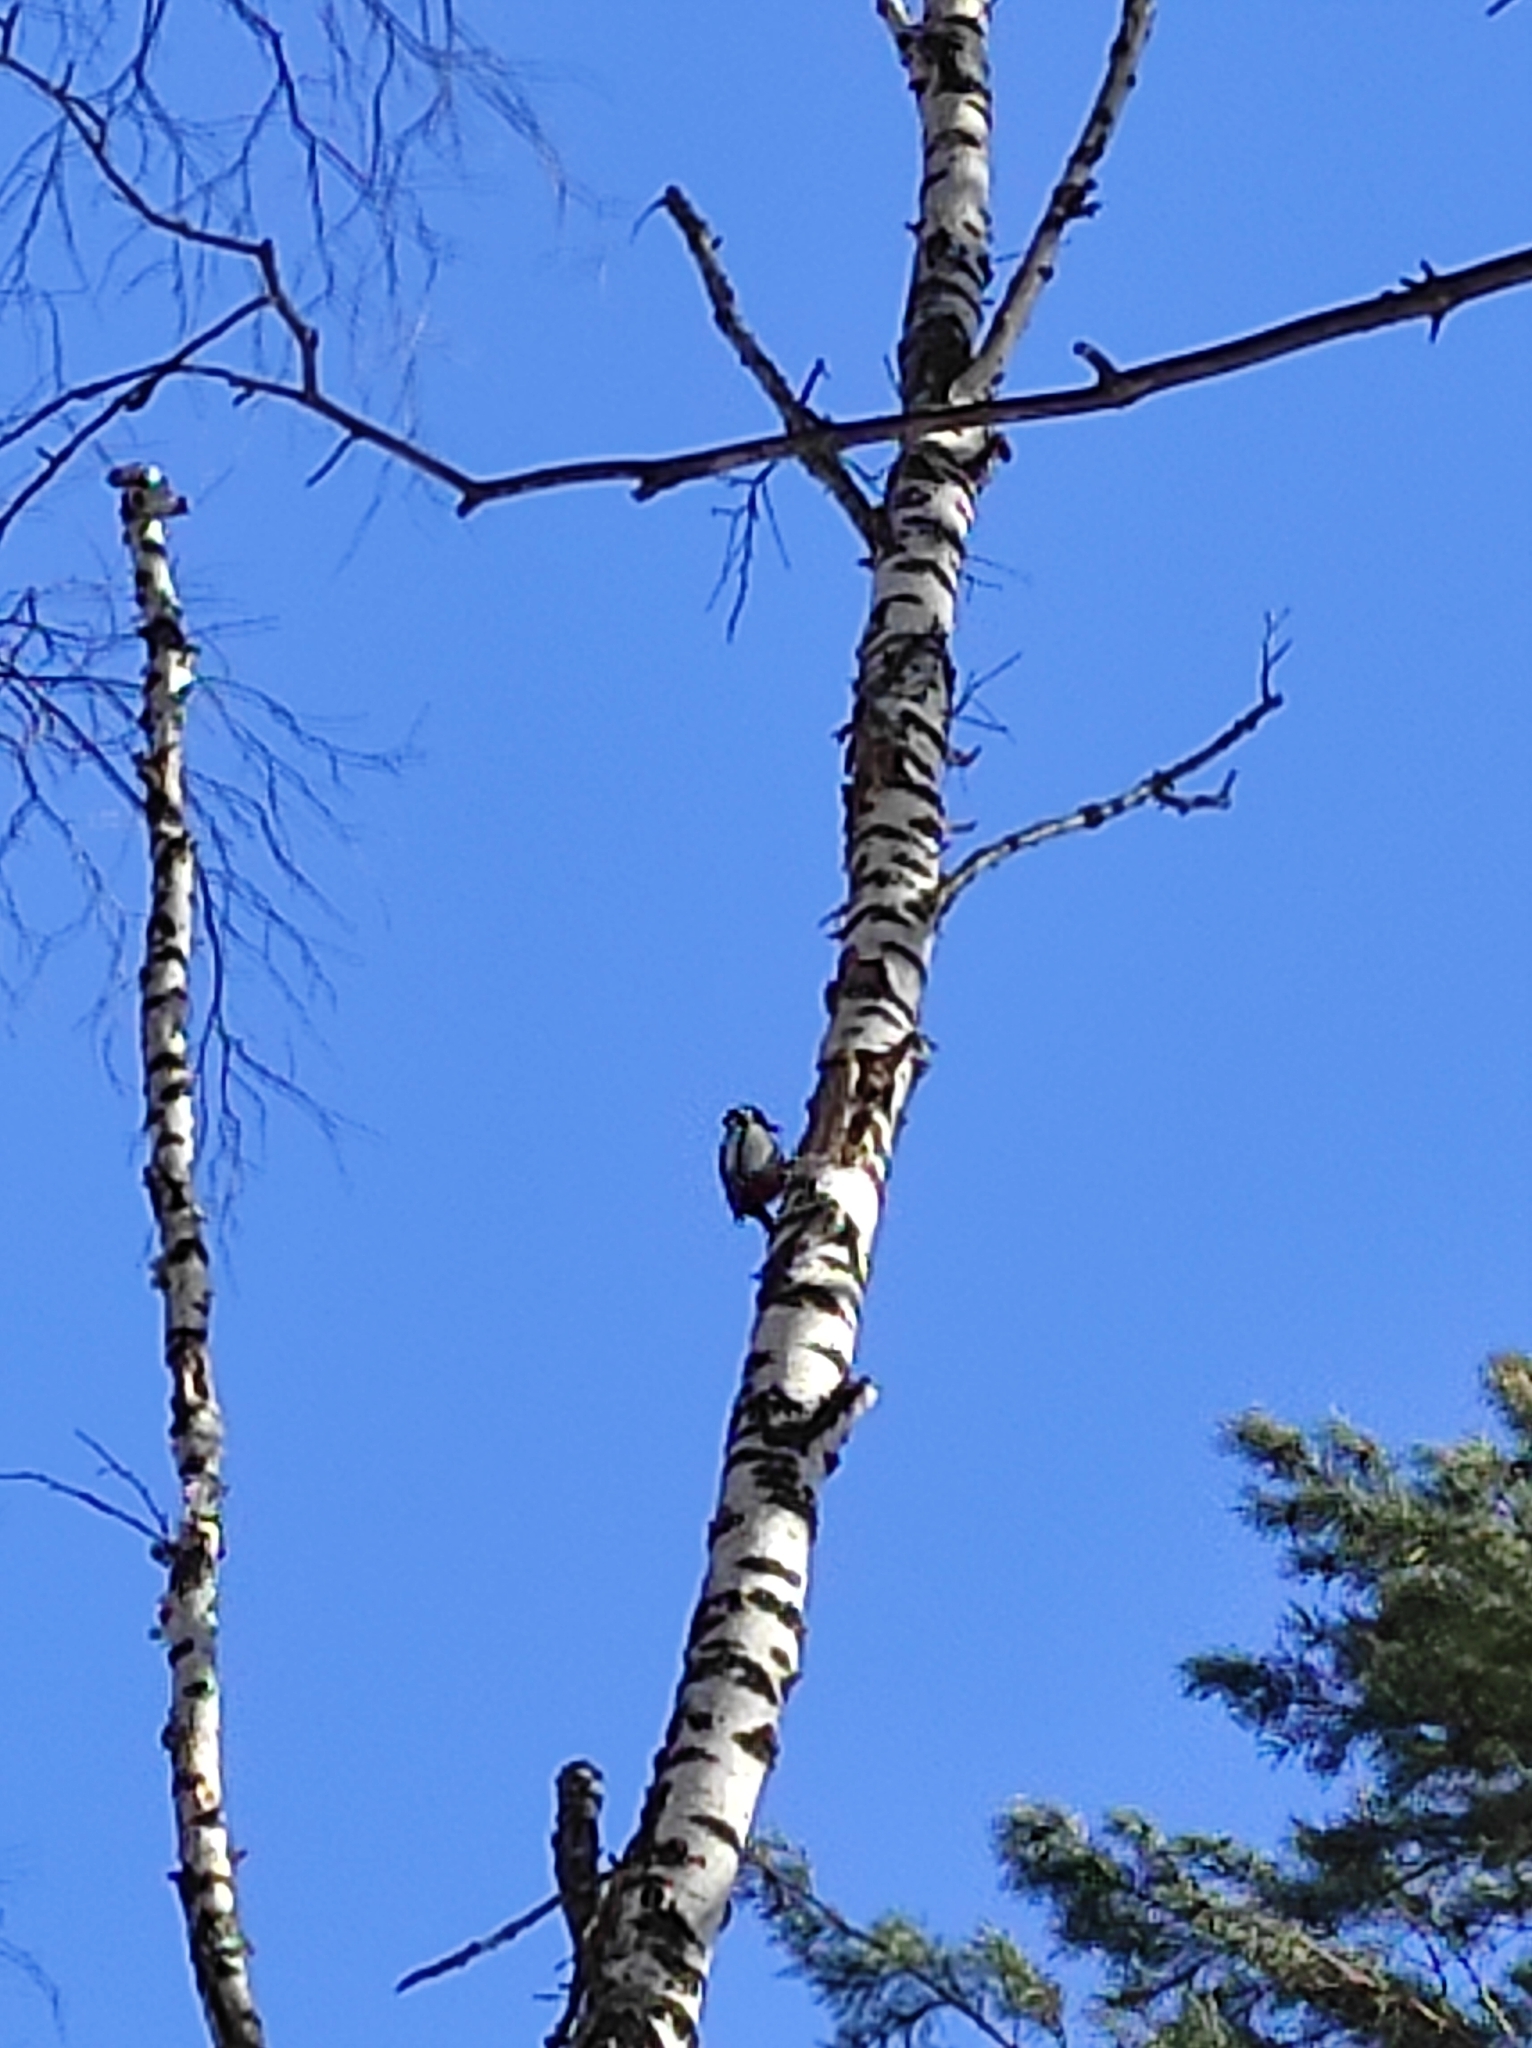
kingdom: Animalia
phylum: Chordata
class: Aves
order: Piciformes
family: Picidae
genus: Dendrocopos
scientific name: Dendrocopos major
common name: Great spotted woodpecker
